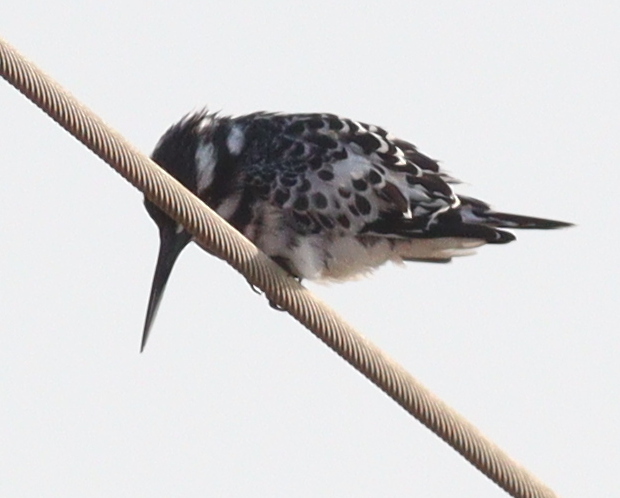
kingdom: Animalia
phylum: Chordata
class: Aves
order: Coraciiformes
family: Alcedinidae
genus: Ceryle
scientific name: Ceryle rudis
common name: Pied kingfisher
